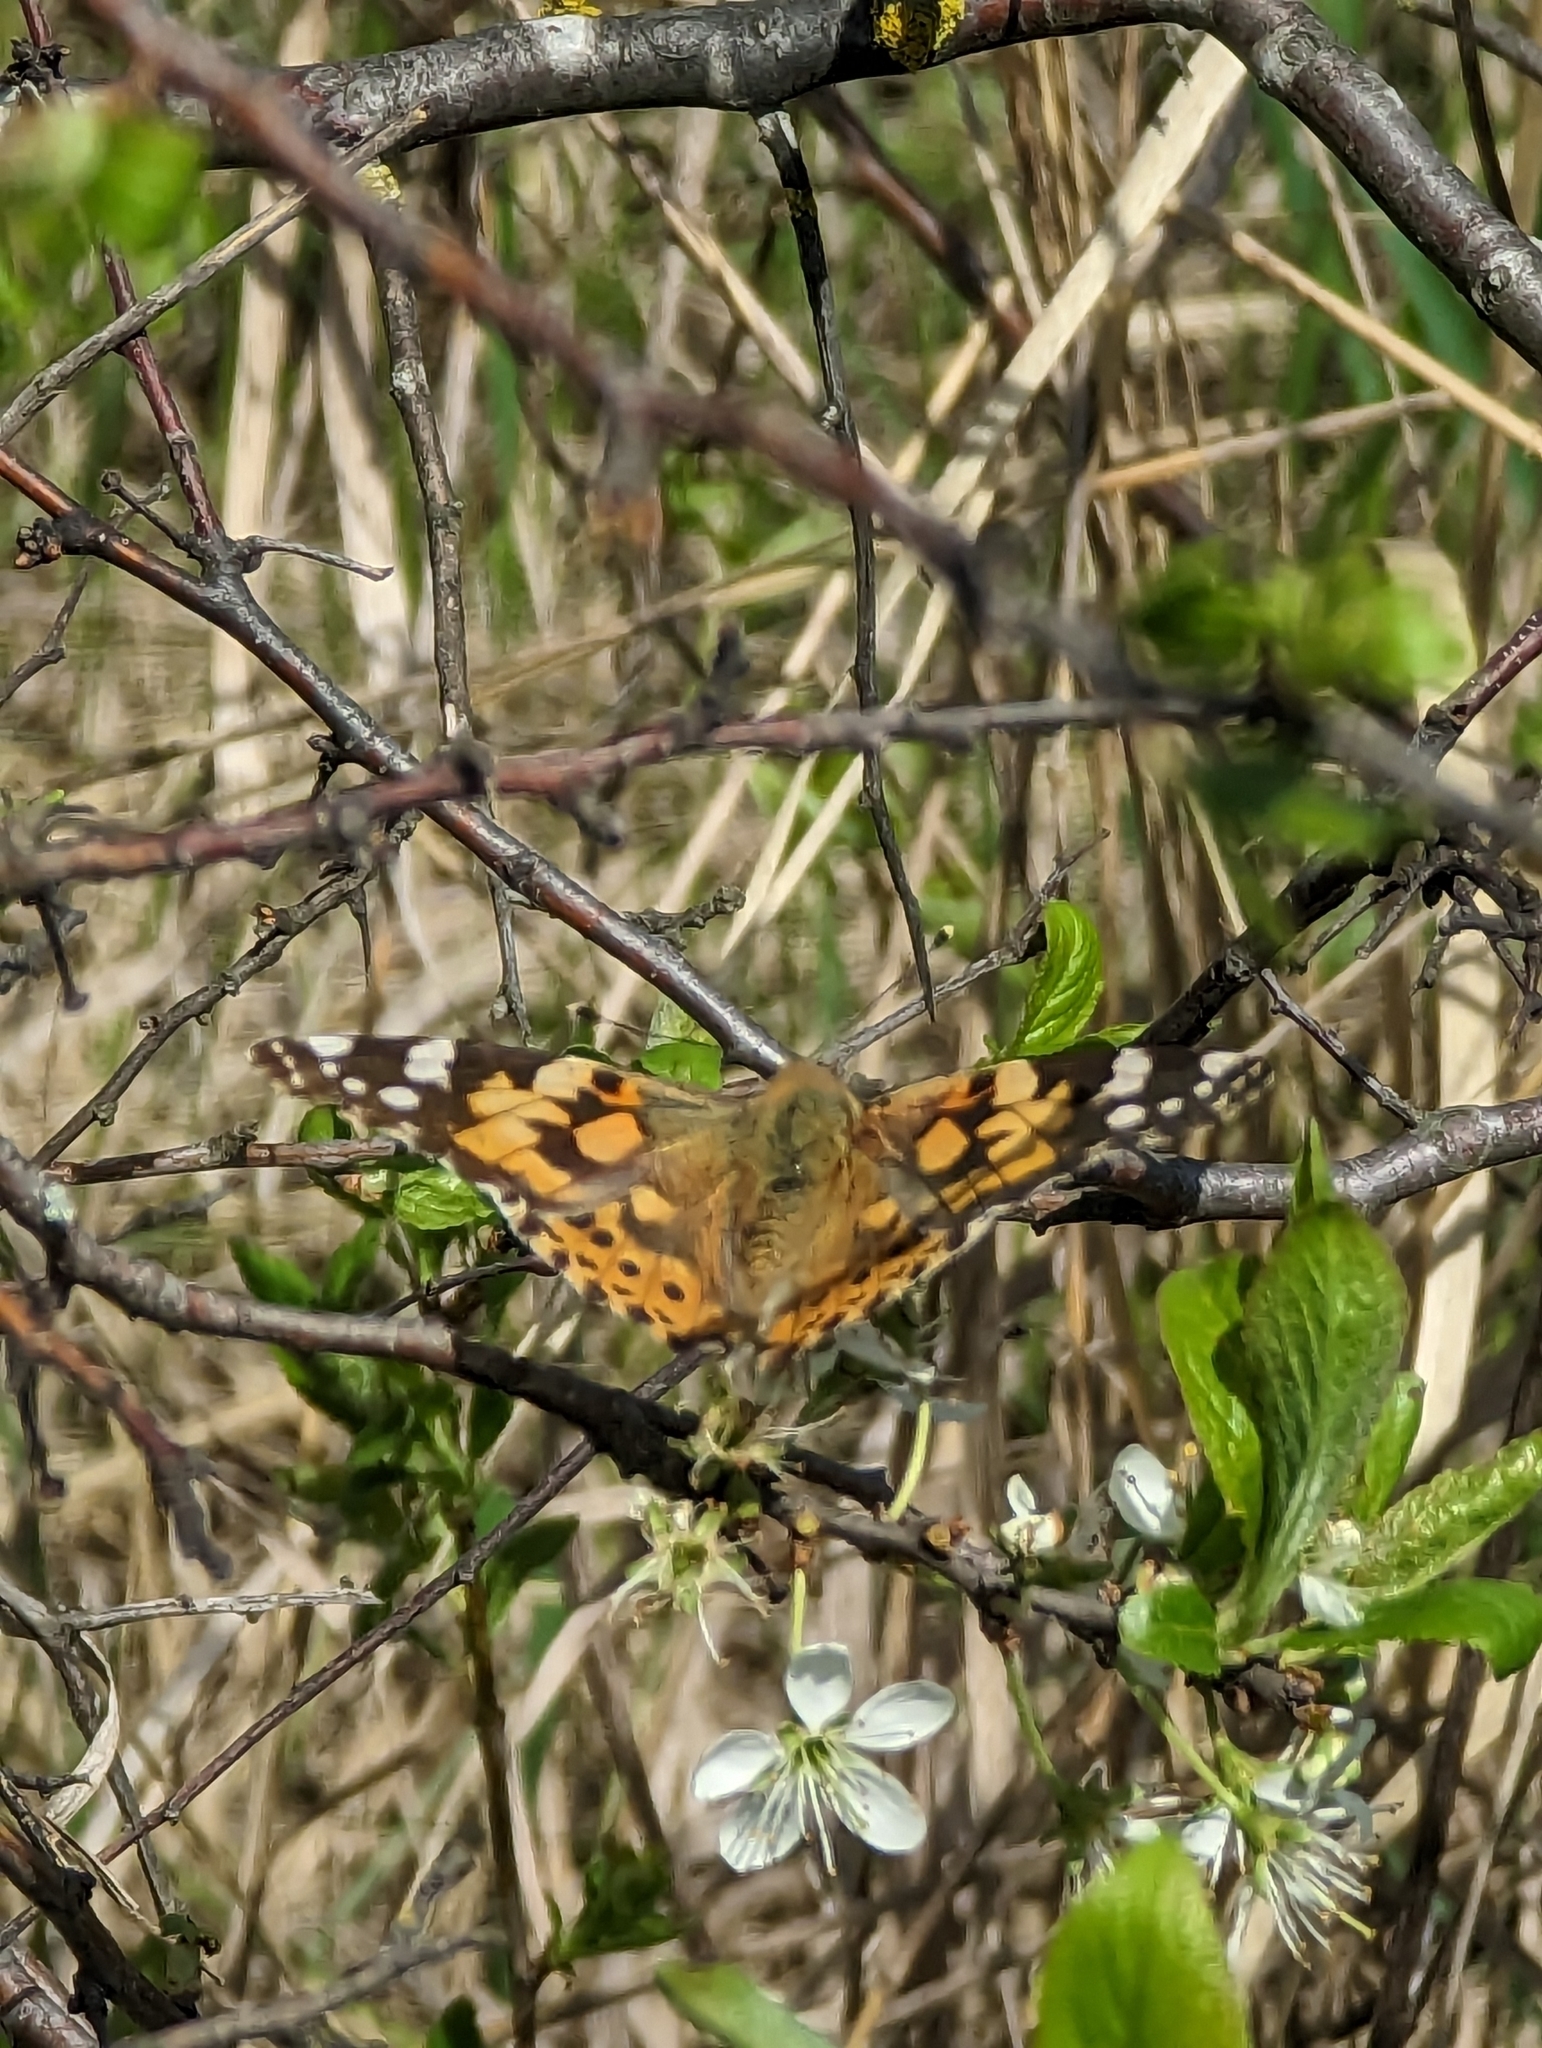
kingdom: Animalia
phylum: Arthropoda
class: Insecta
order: Lepidoptera
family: Nymphalidae
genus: Vanessa
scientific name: Vanessa cardui
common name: Painted lady
